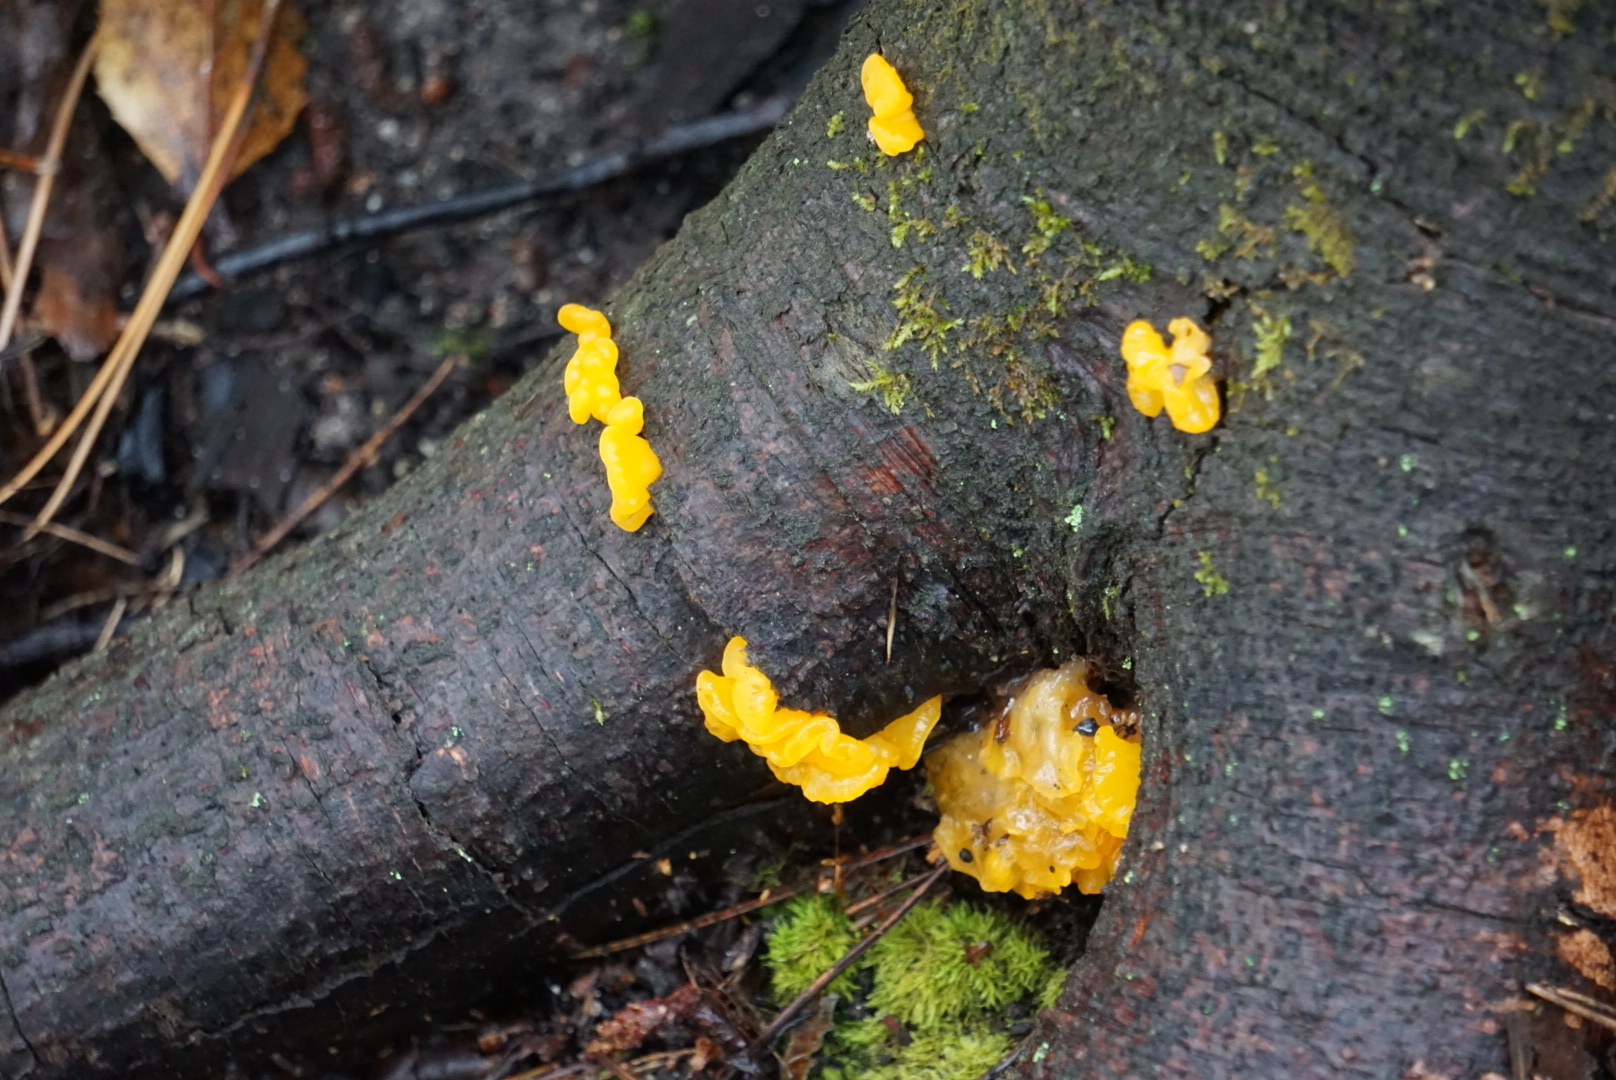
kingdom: Fungi
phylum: Basidiomycota
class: Dacrymycetes
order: Dacrymycetales
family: Dacrymycetaceae
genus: Dacrymyces
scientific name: Dacrymyces chrysospermus
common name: Orange jelly spot
